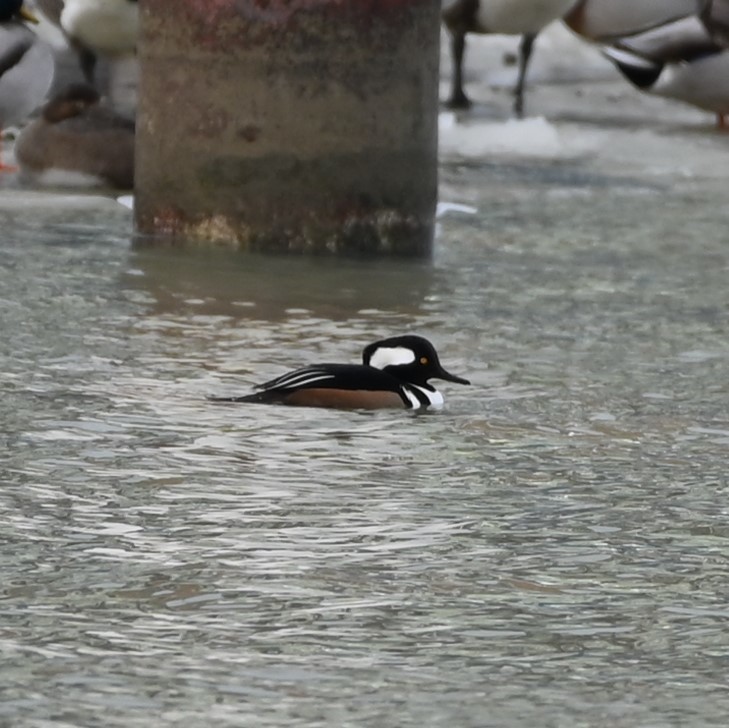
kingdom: Animalia
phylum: Chordata
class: Aves
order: Anseriformes
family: Anatidae
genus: Lophodytes
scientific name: Lophodytes cucullatus
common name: Hooded merganser
